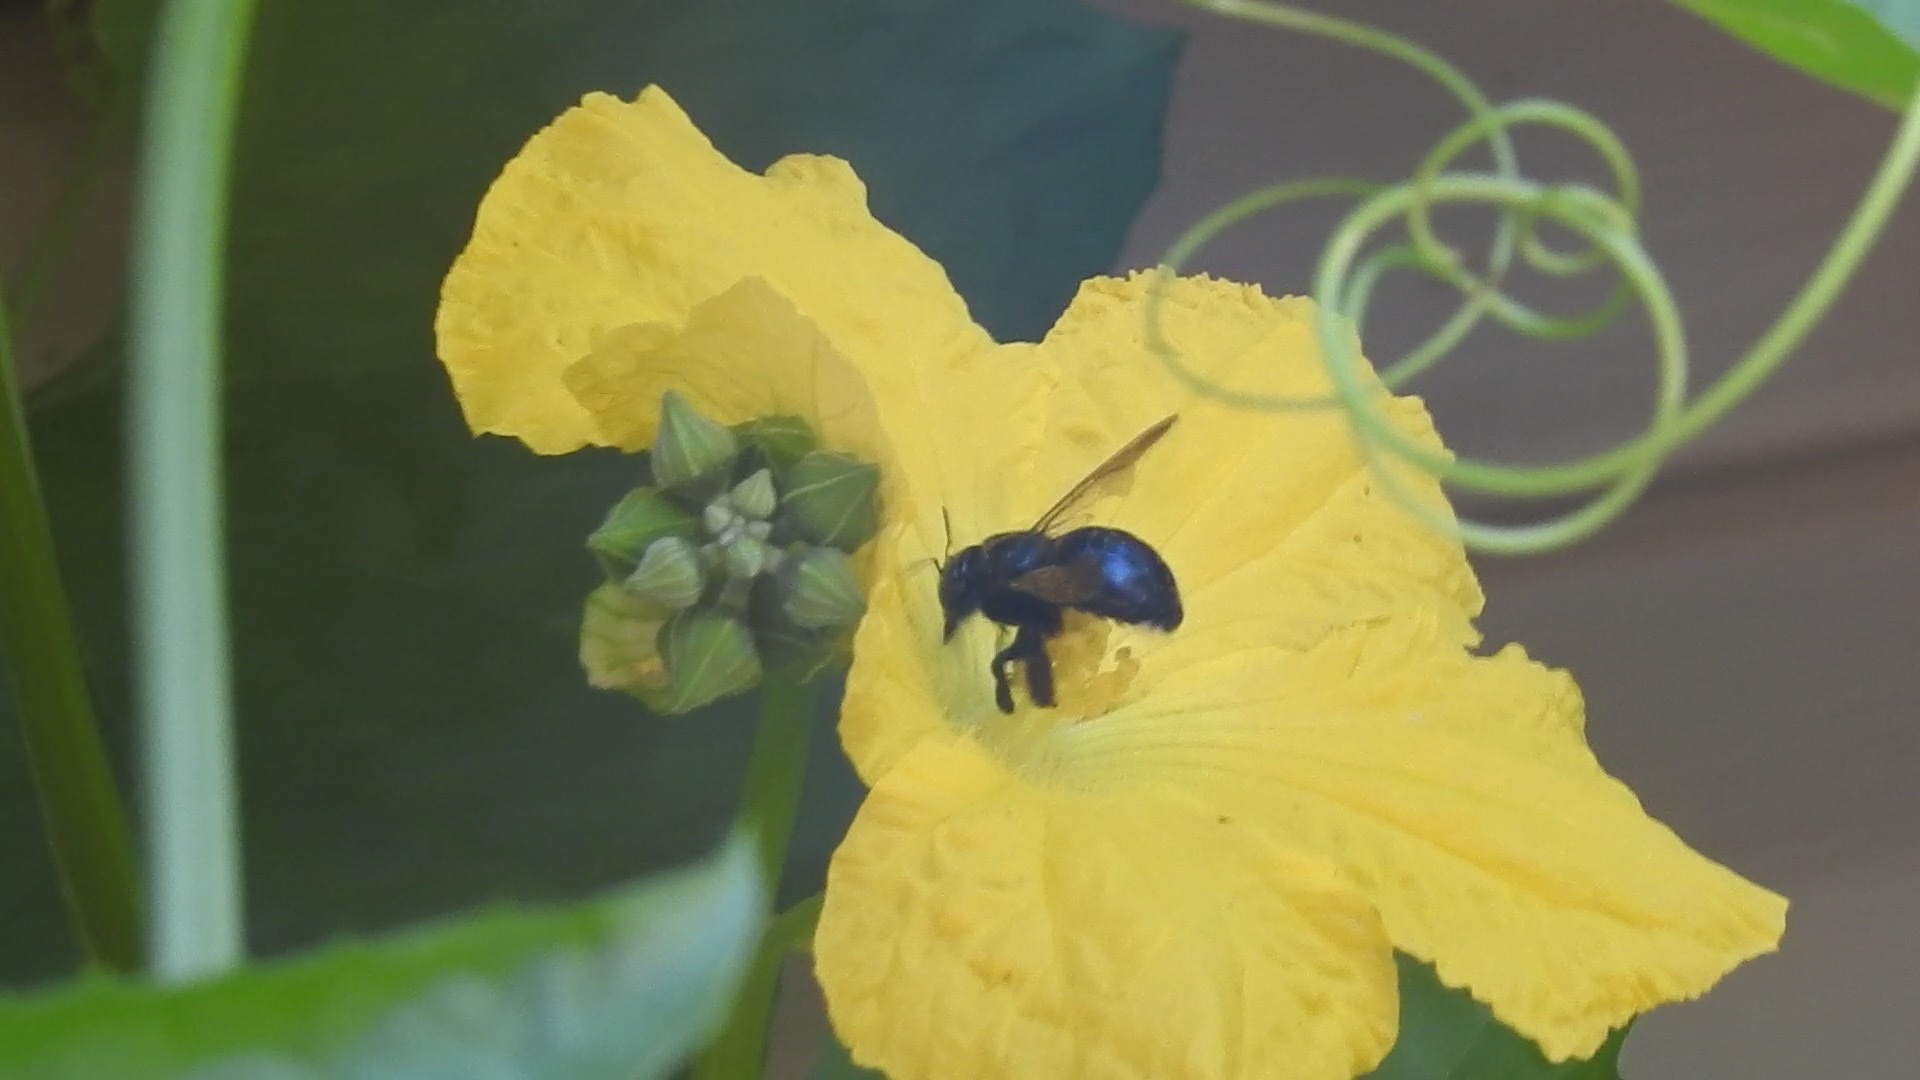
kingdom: Animalia
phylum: Arthropoda
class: Insecta
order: Hymenoptera
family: Apidae
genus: Xylocopa
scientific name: Xylocopa micans
